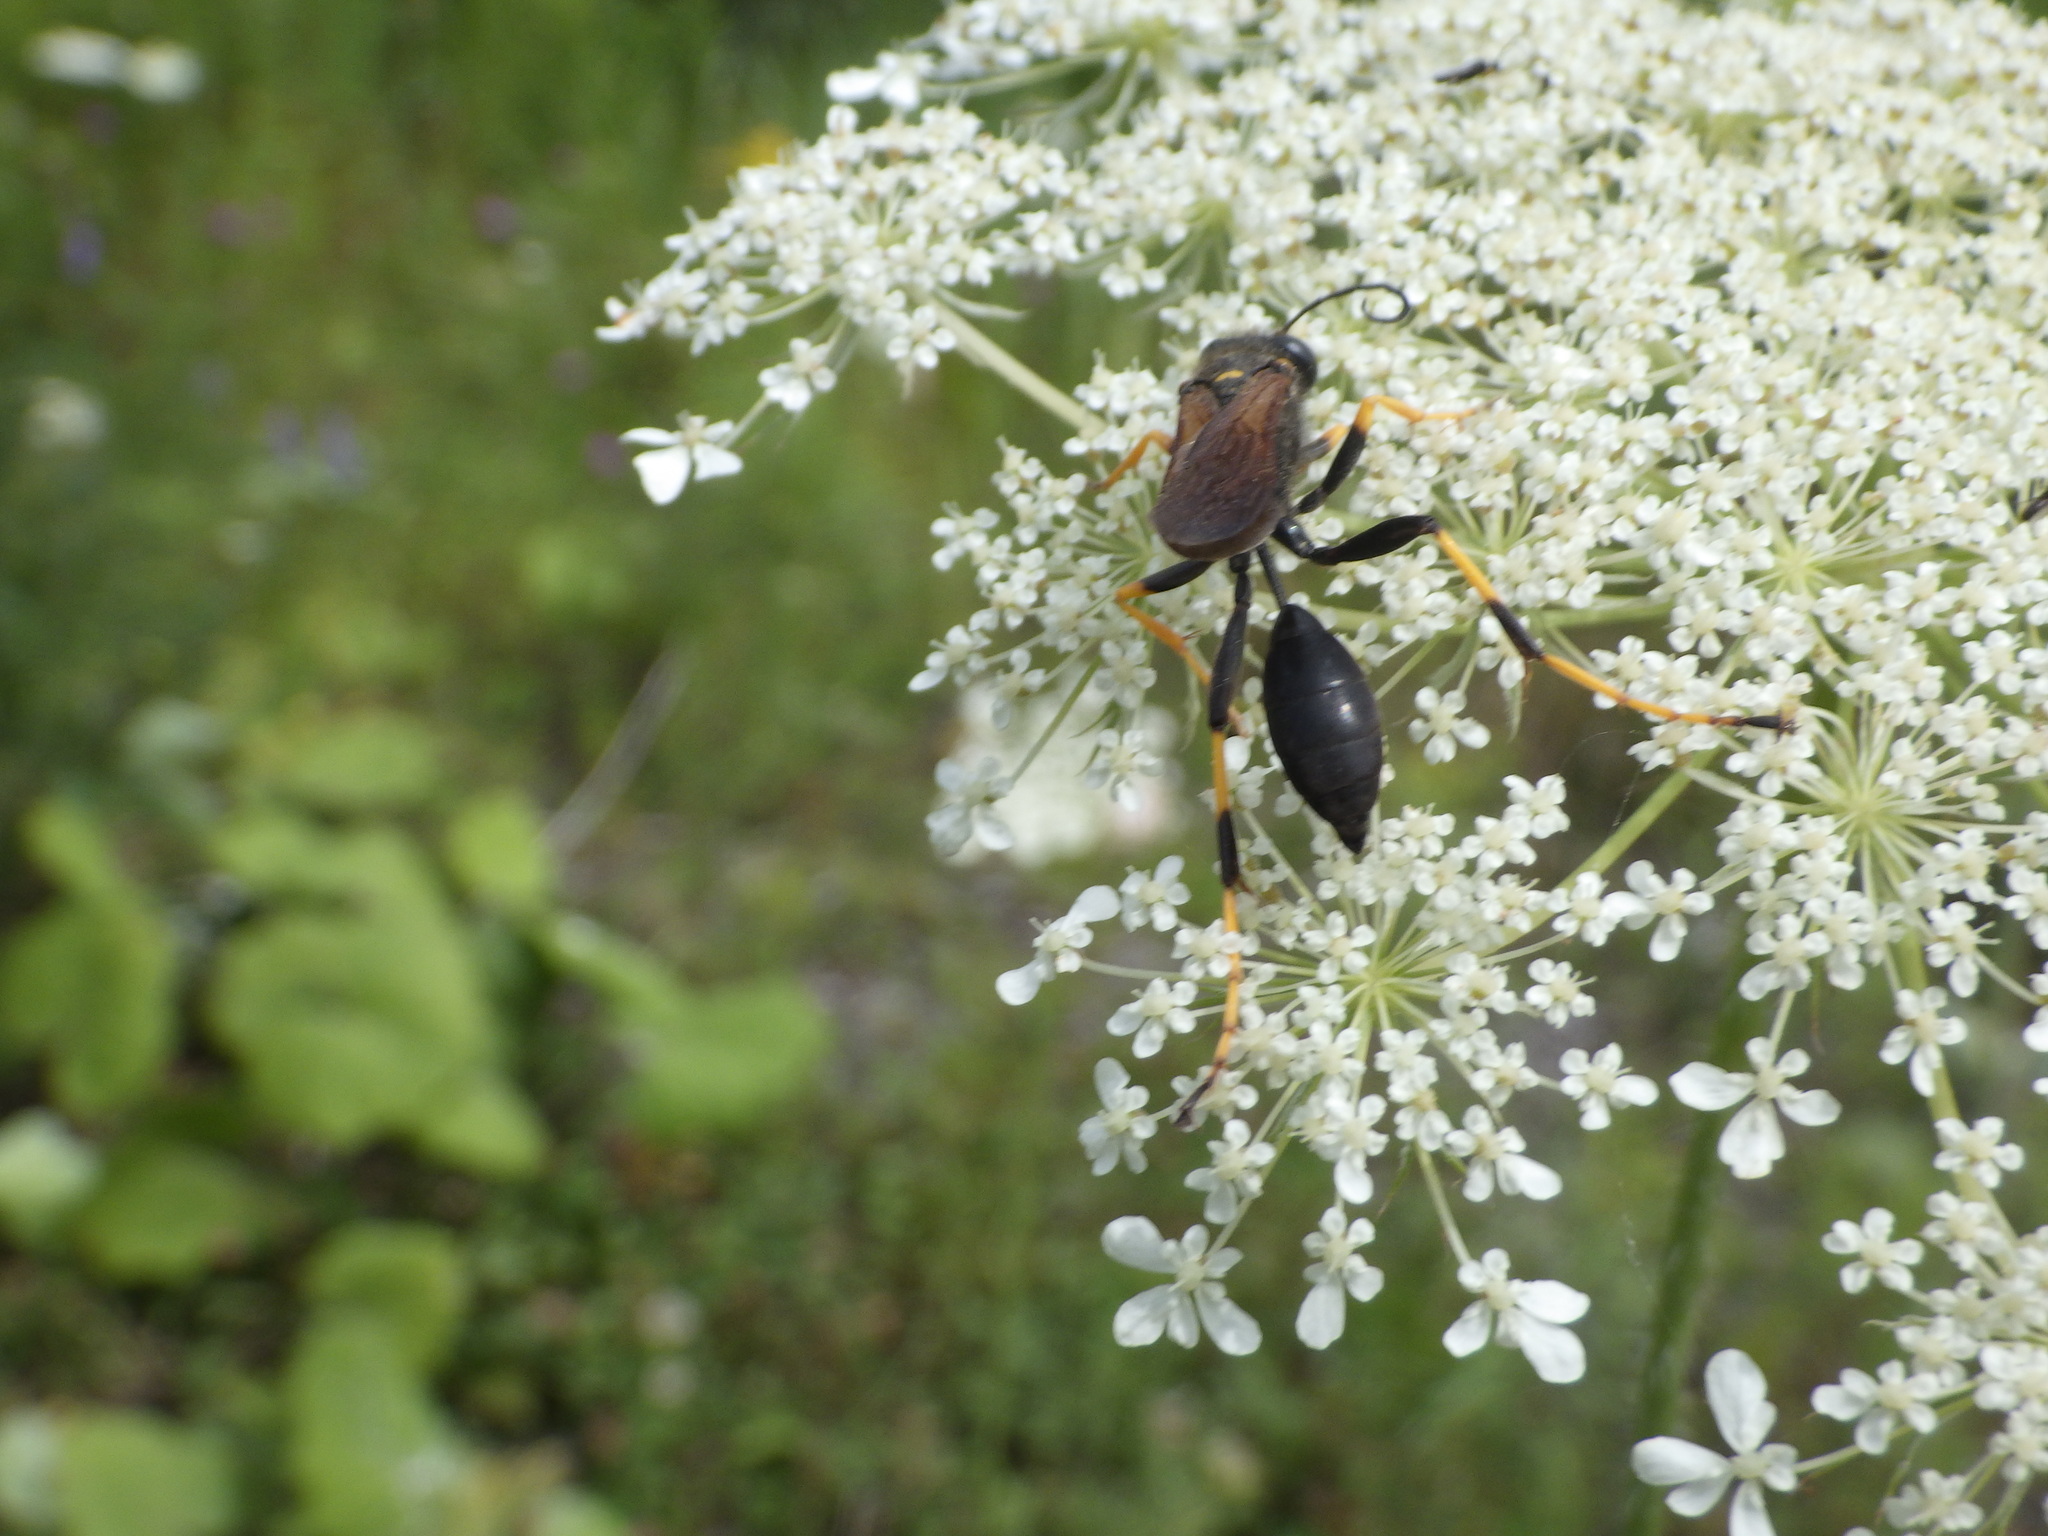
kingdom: Animalia
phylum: Arthropoda
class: Insecta
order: Hymenoptera
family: Sphecidae
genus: Sceliphron
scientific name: Sceliphron caementarium
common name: Mud dauber
